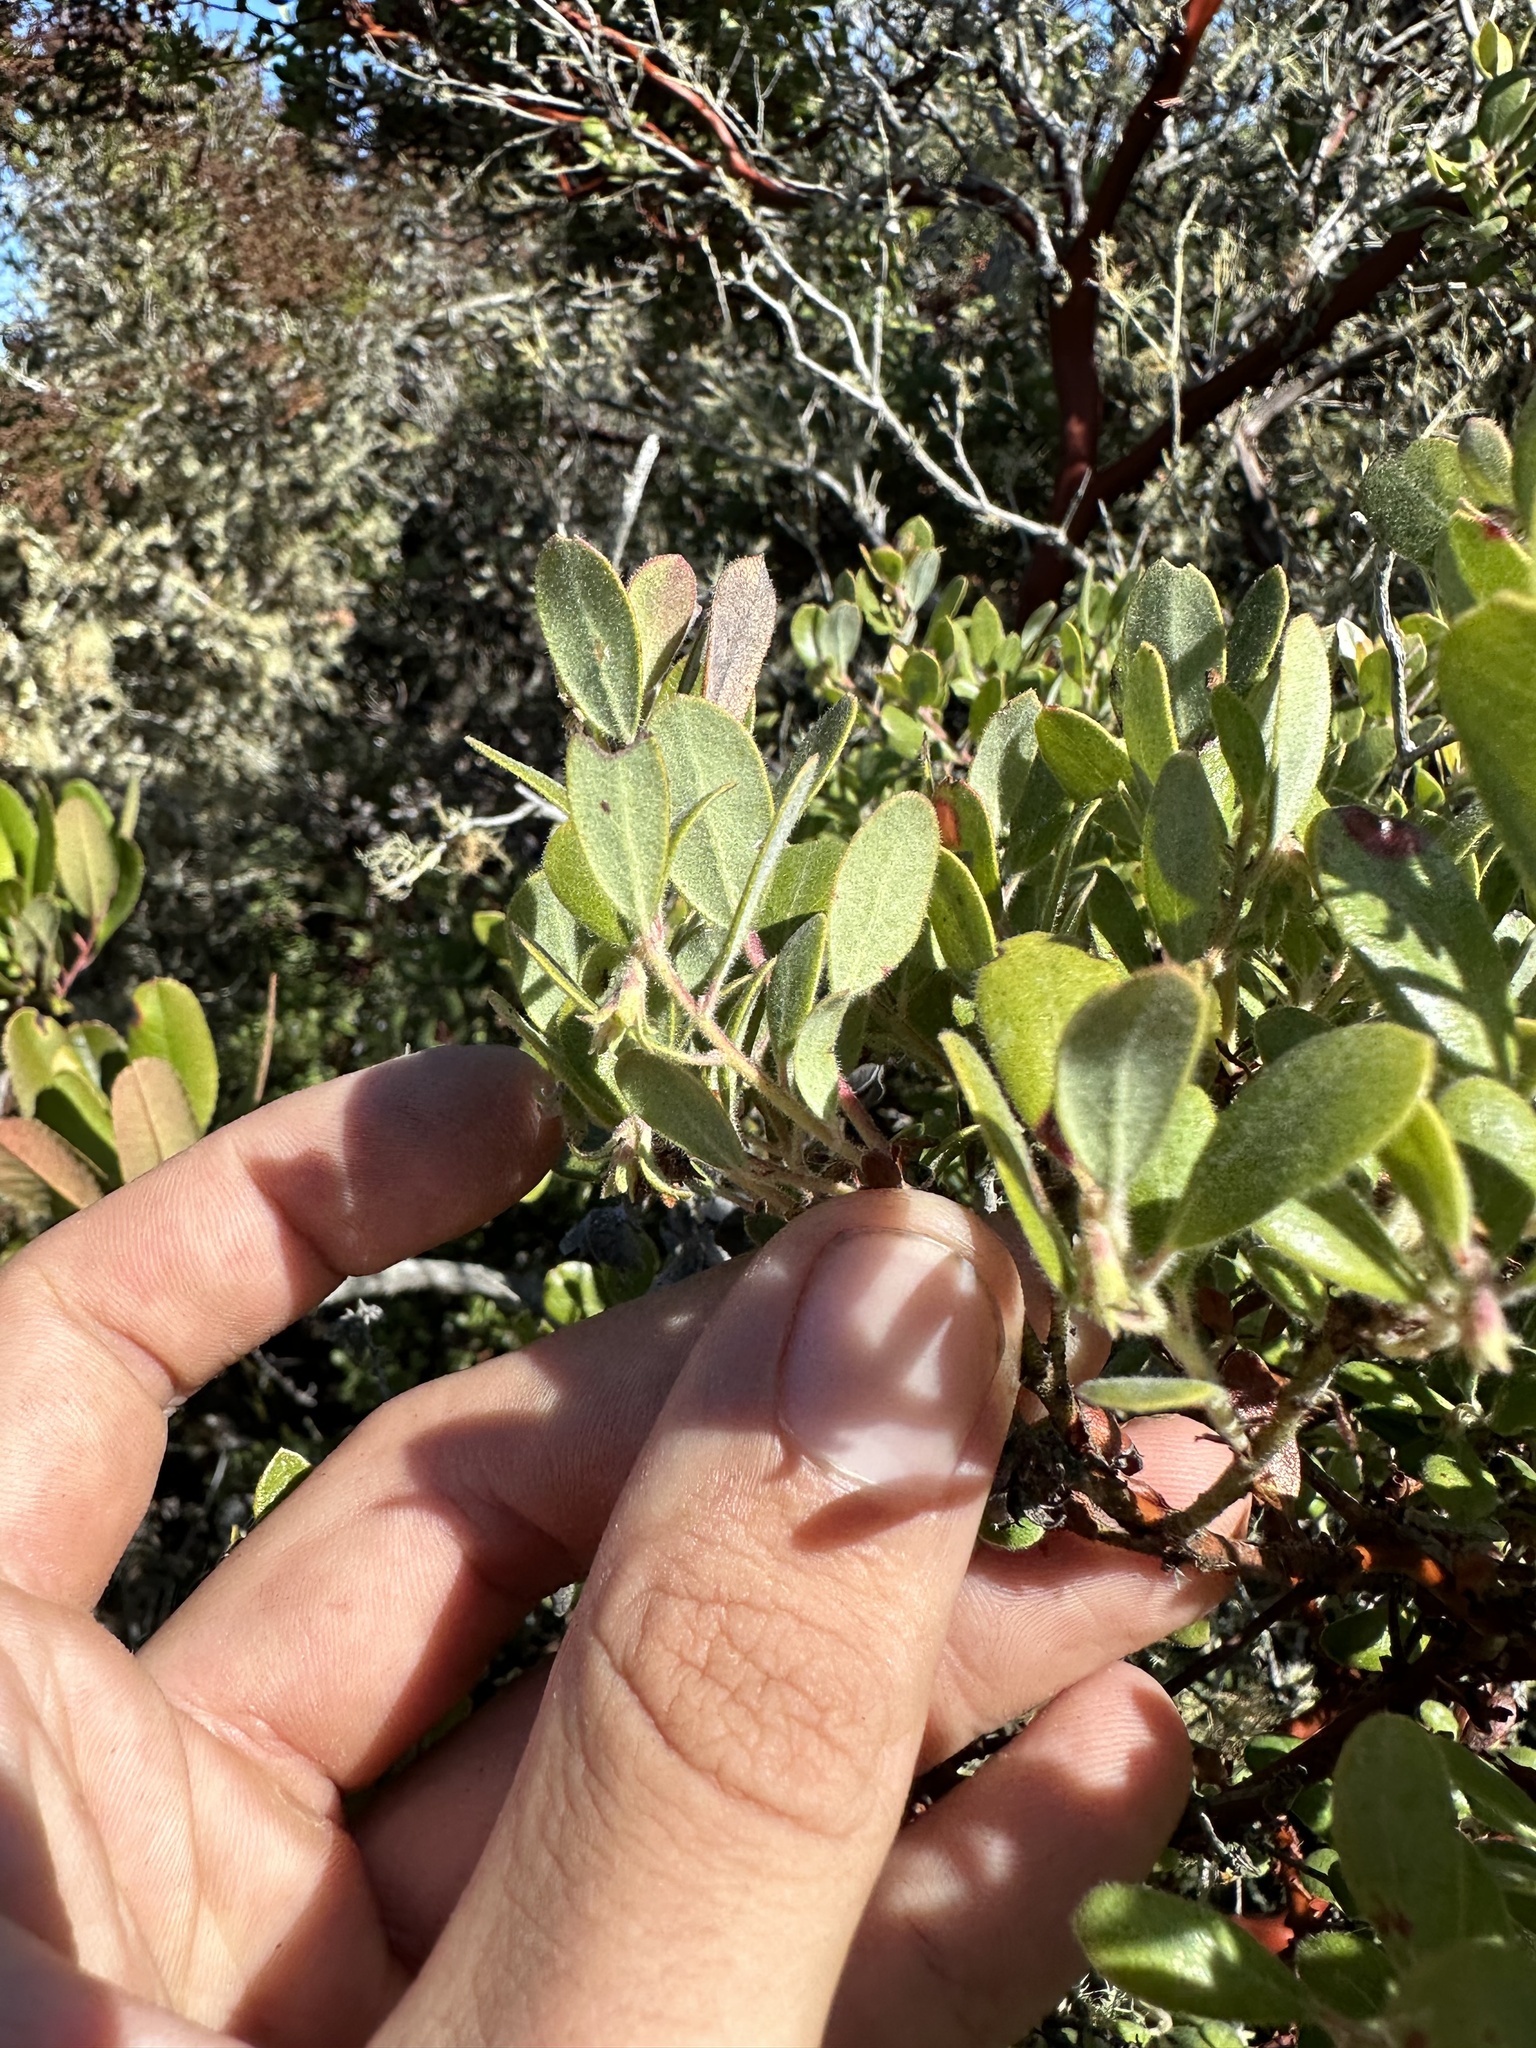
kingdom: Plantae
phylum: Tracheophyta
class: Magnoliopsida
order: Ericales
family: Ericaceae
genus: Arctostaphylos
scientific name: Arctostaphylos pumila
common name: Sandmat manzanita
